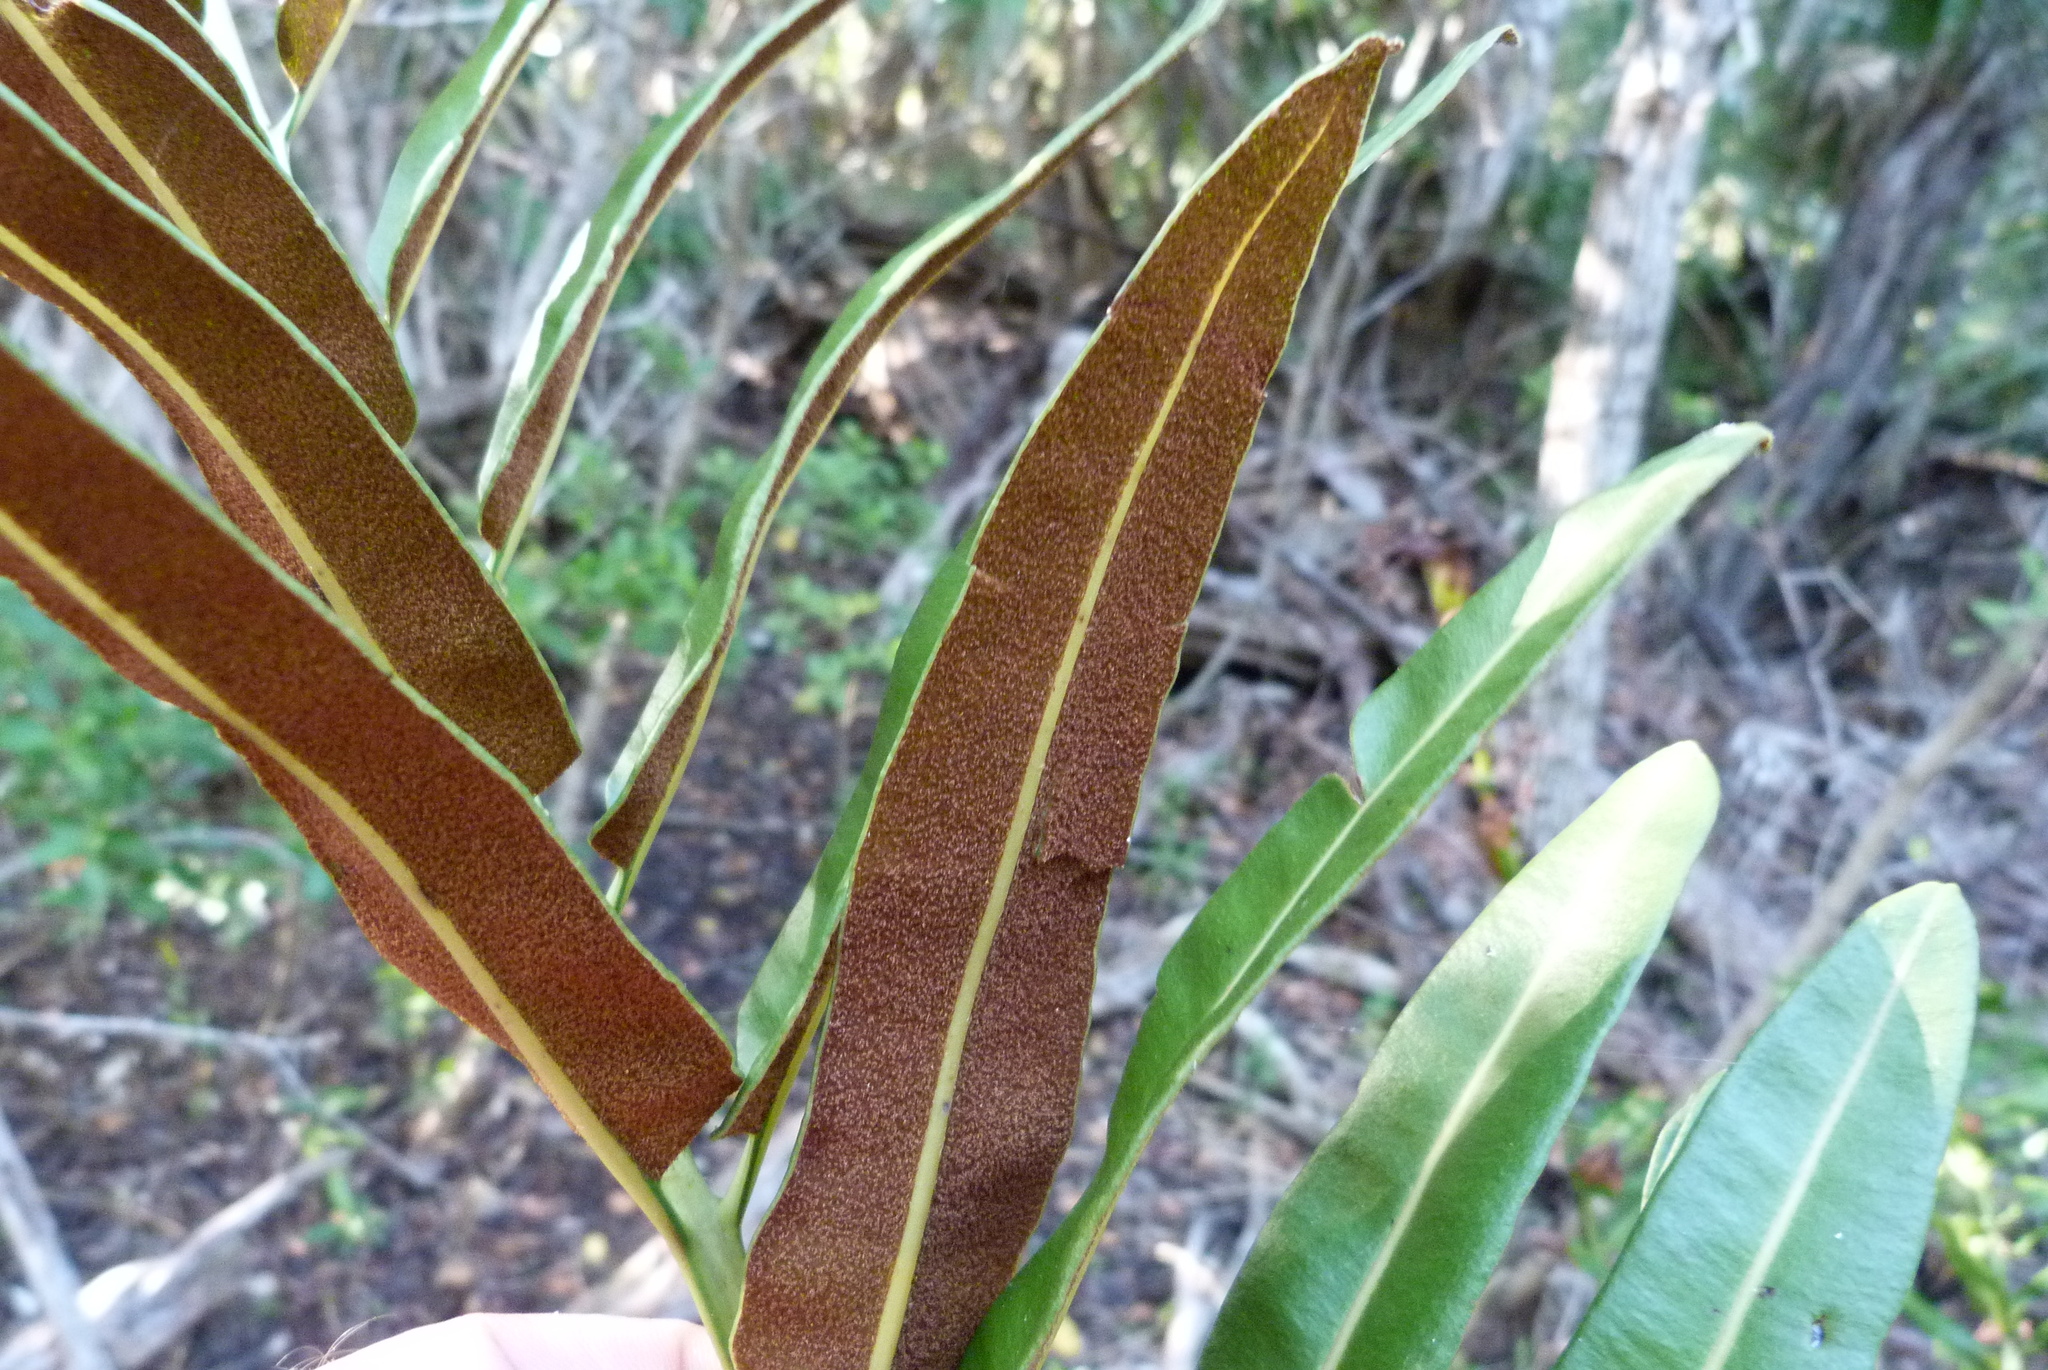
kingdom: Plantae
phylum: Tracheophyta
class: Polypodiopsida
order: Polypodiales
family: Pteridaceae
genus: Acrostichum
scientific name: Acrostichum danaeifolium
